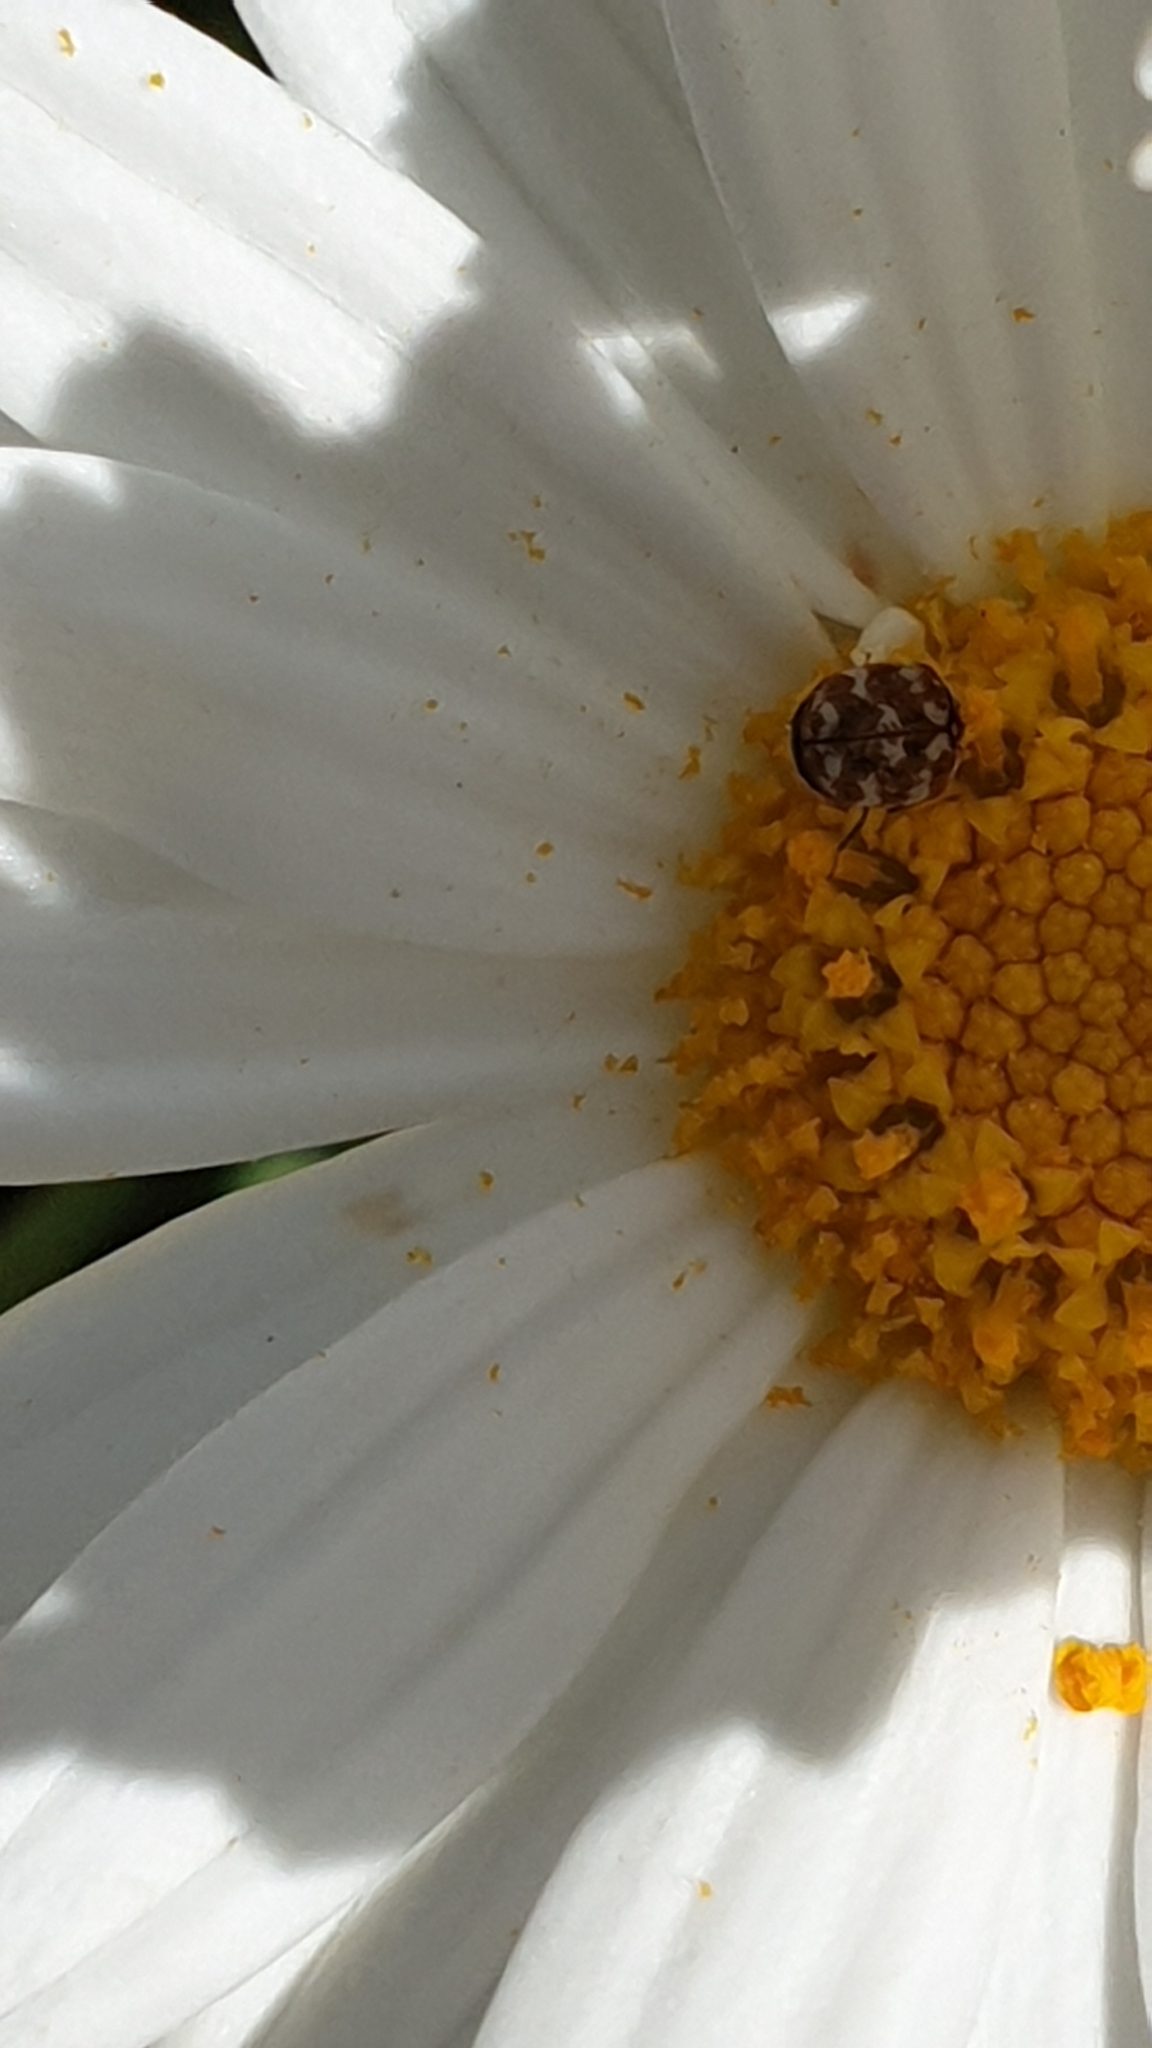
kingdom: Animalia
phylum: Arthropoda
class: Insecta
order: Coleoptera
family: Dermestidae
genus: Anthrenus
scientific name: Anthrenus verbasci
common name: Varied carpet beetle
